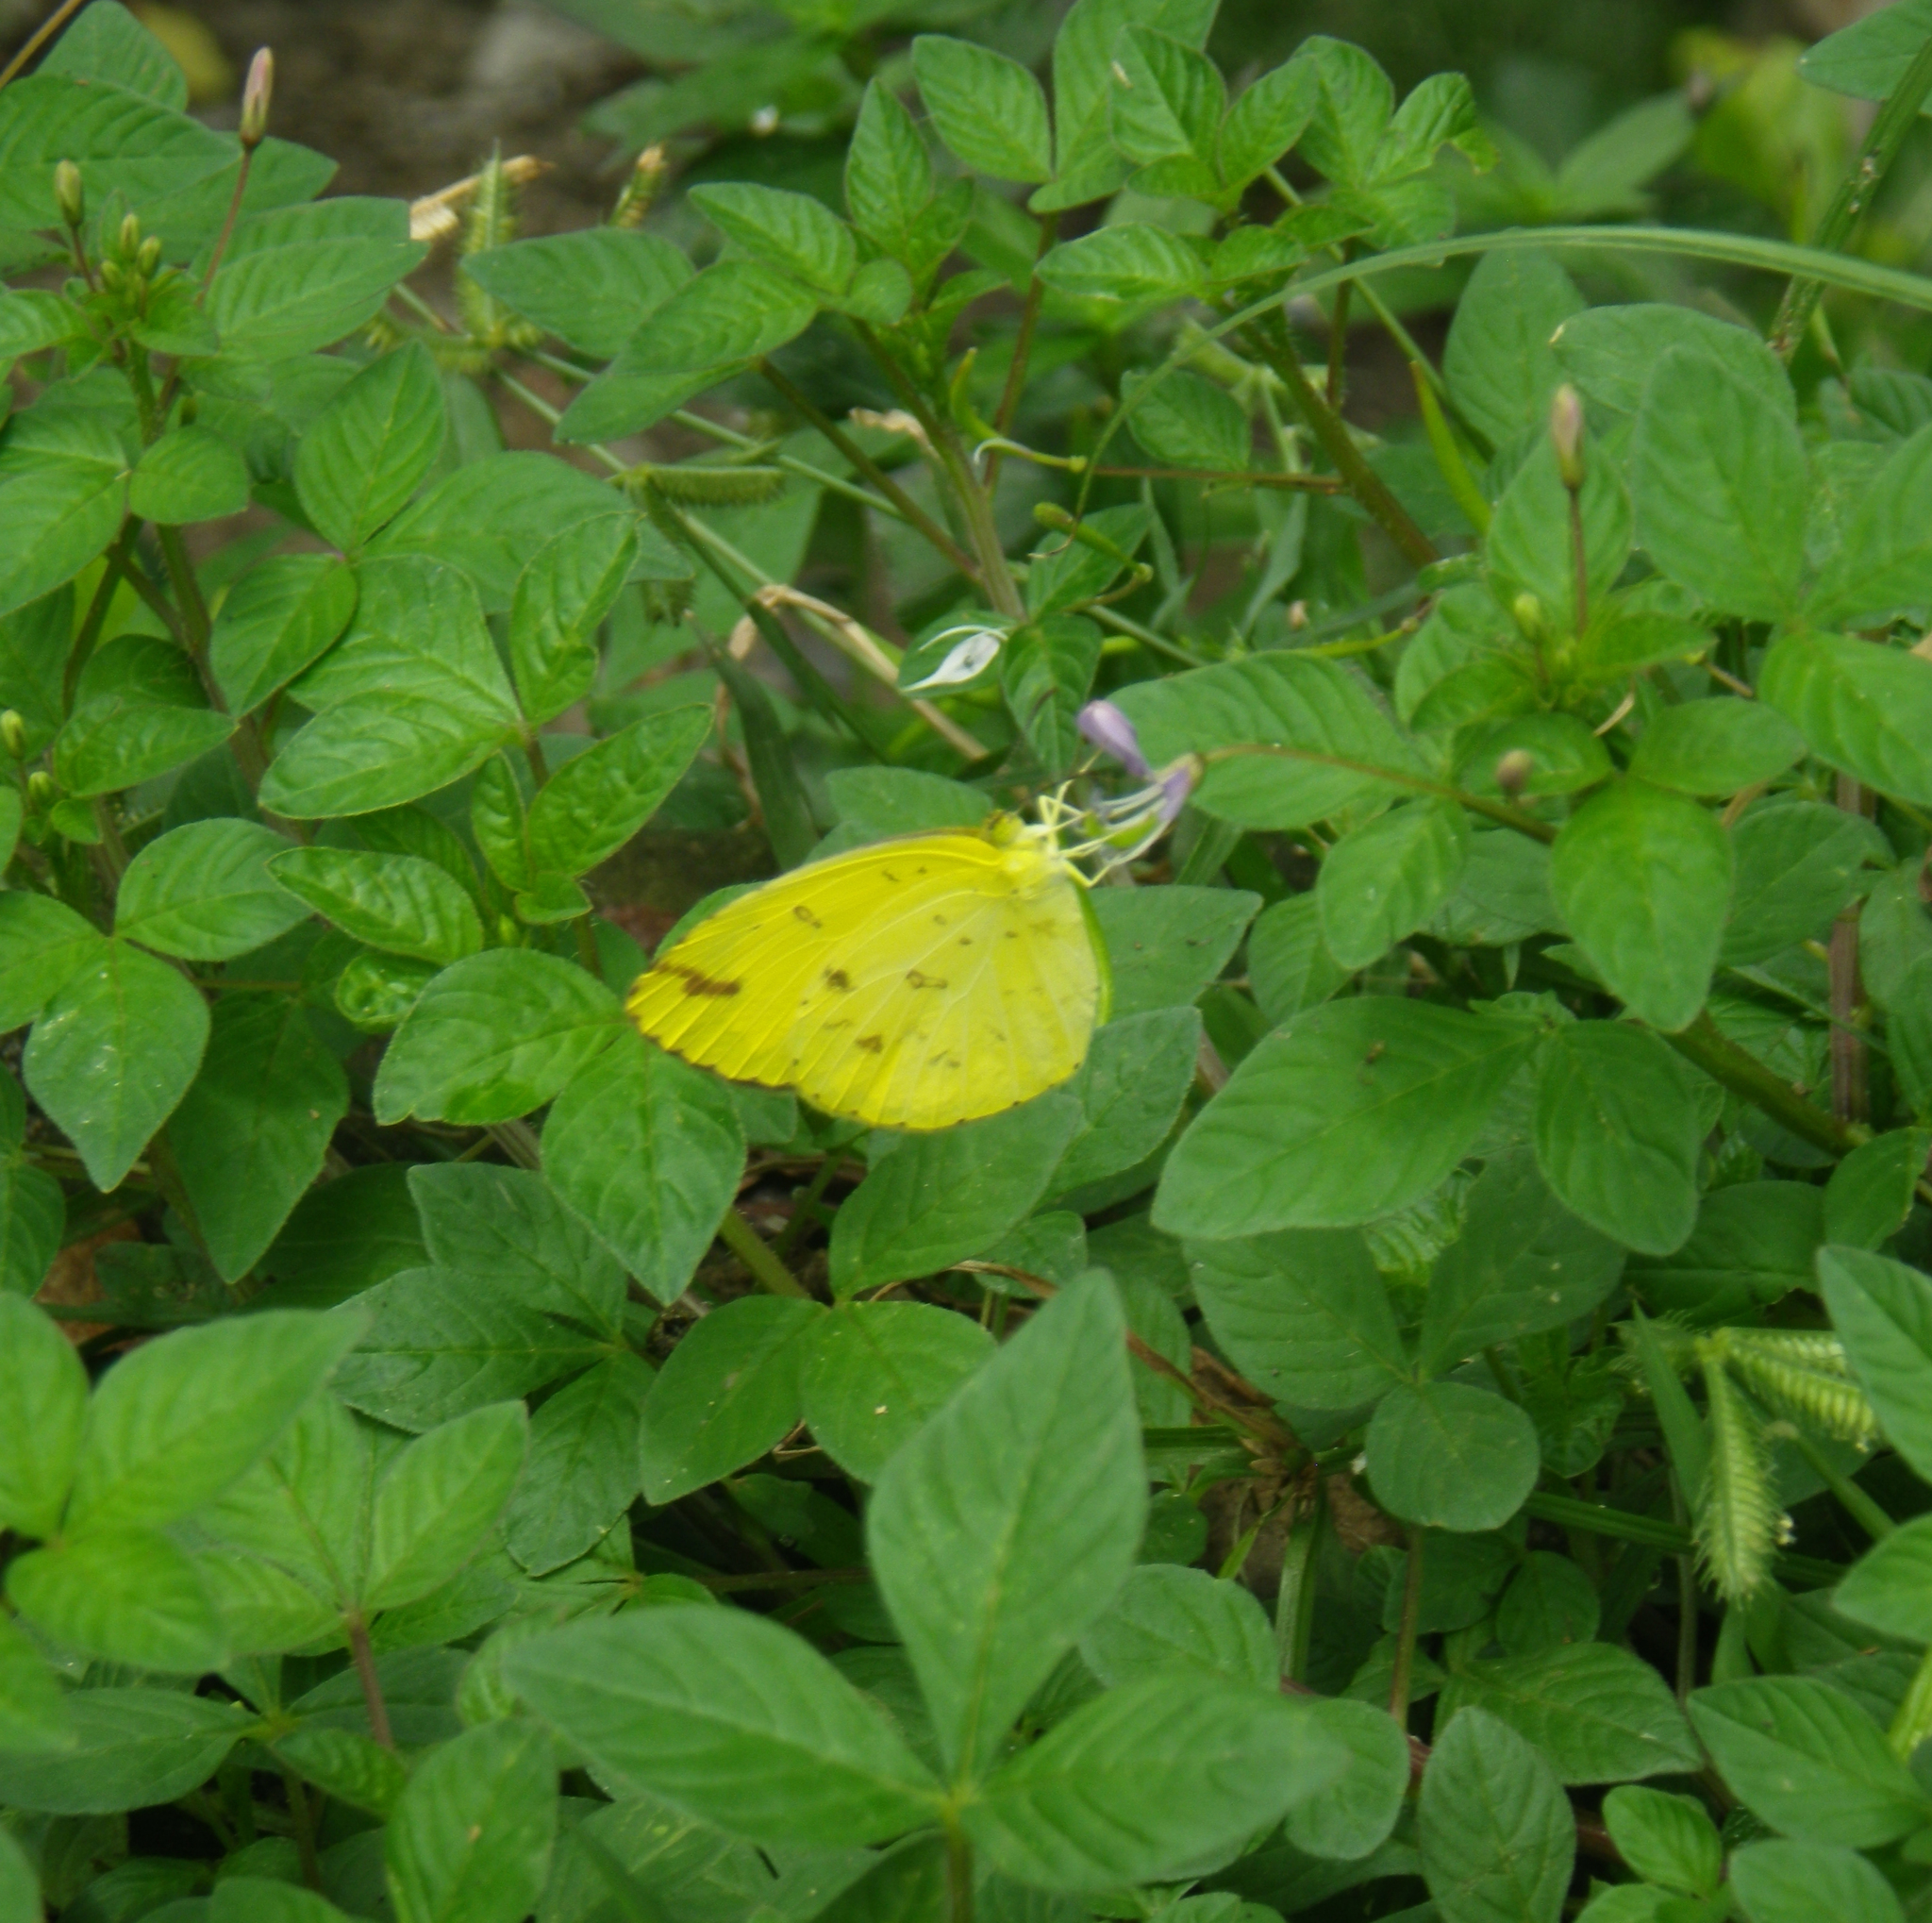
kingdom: Animalia
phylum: Arthropoda
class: Insecta
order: Lepidoptera
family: Pieridae
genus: Eurema
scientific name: Eurema hecabe
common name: Pale grass yellow
